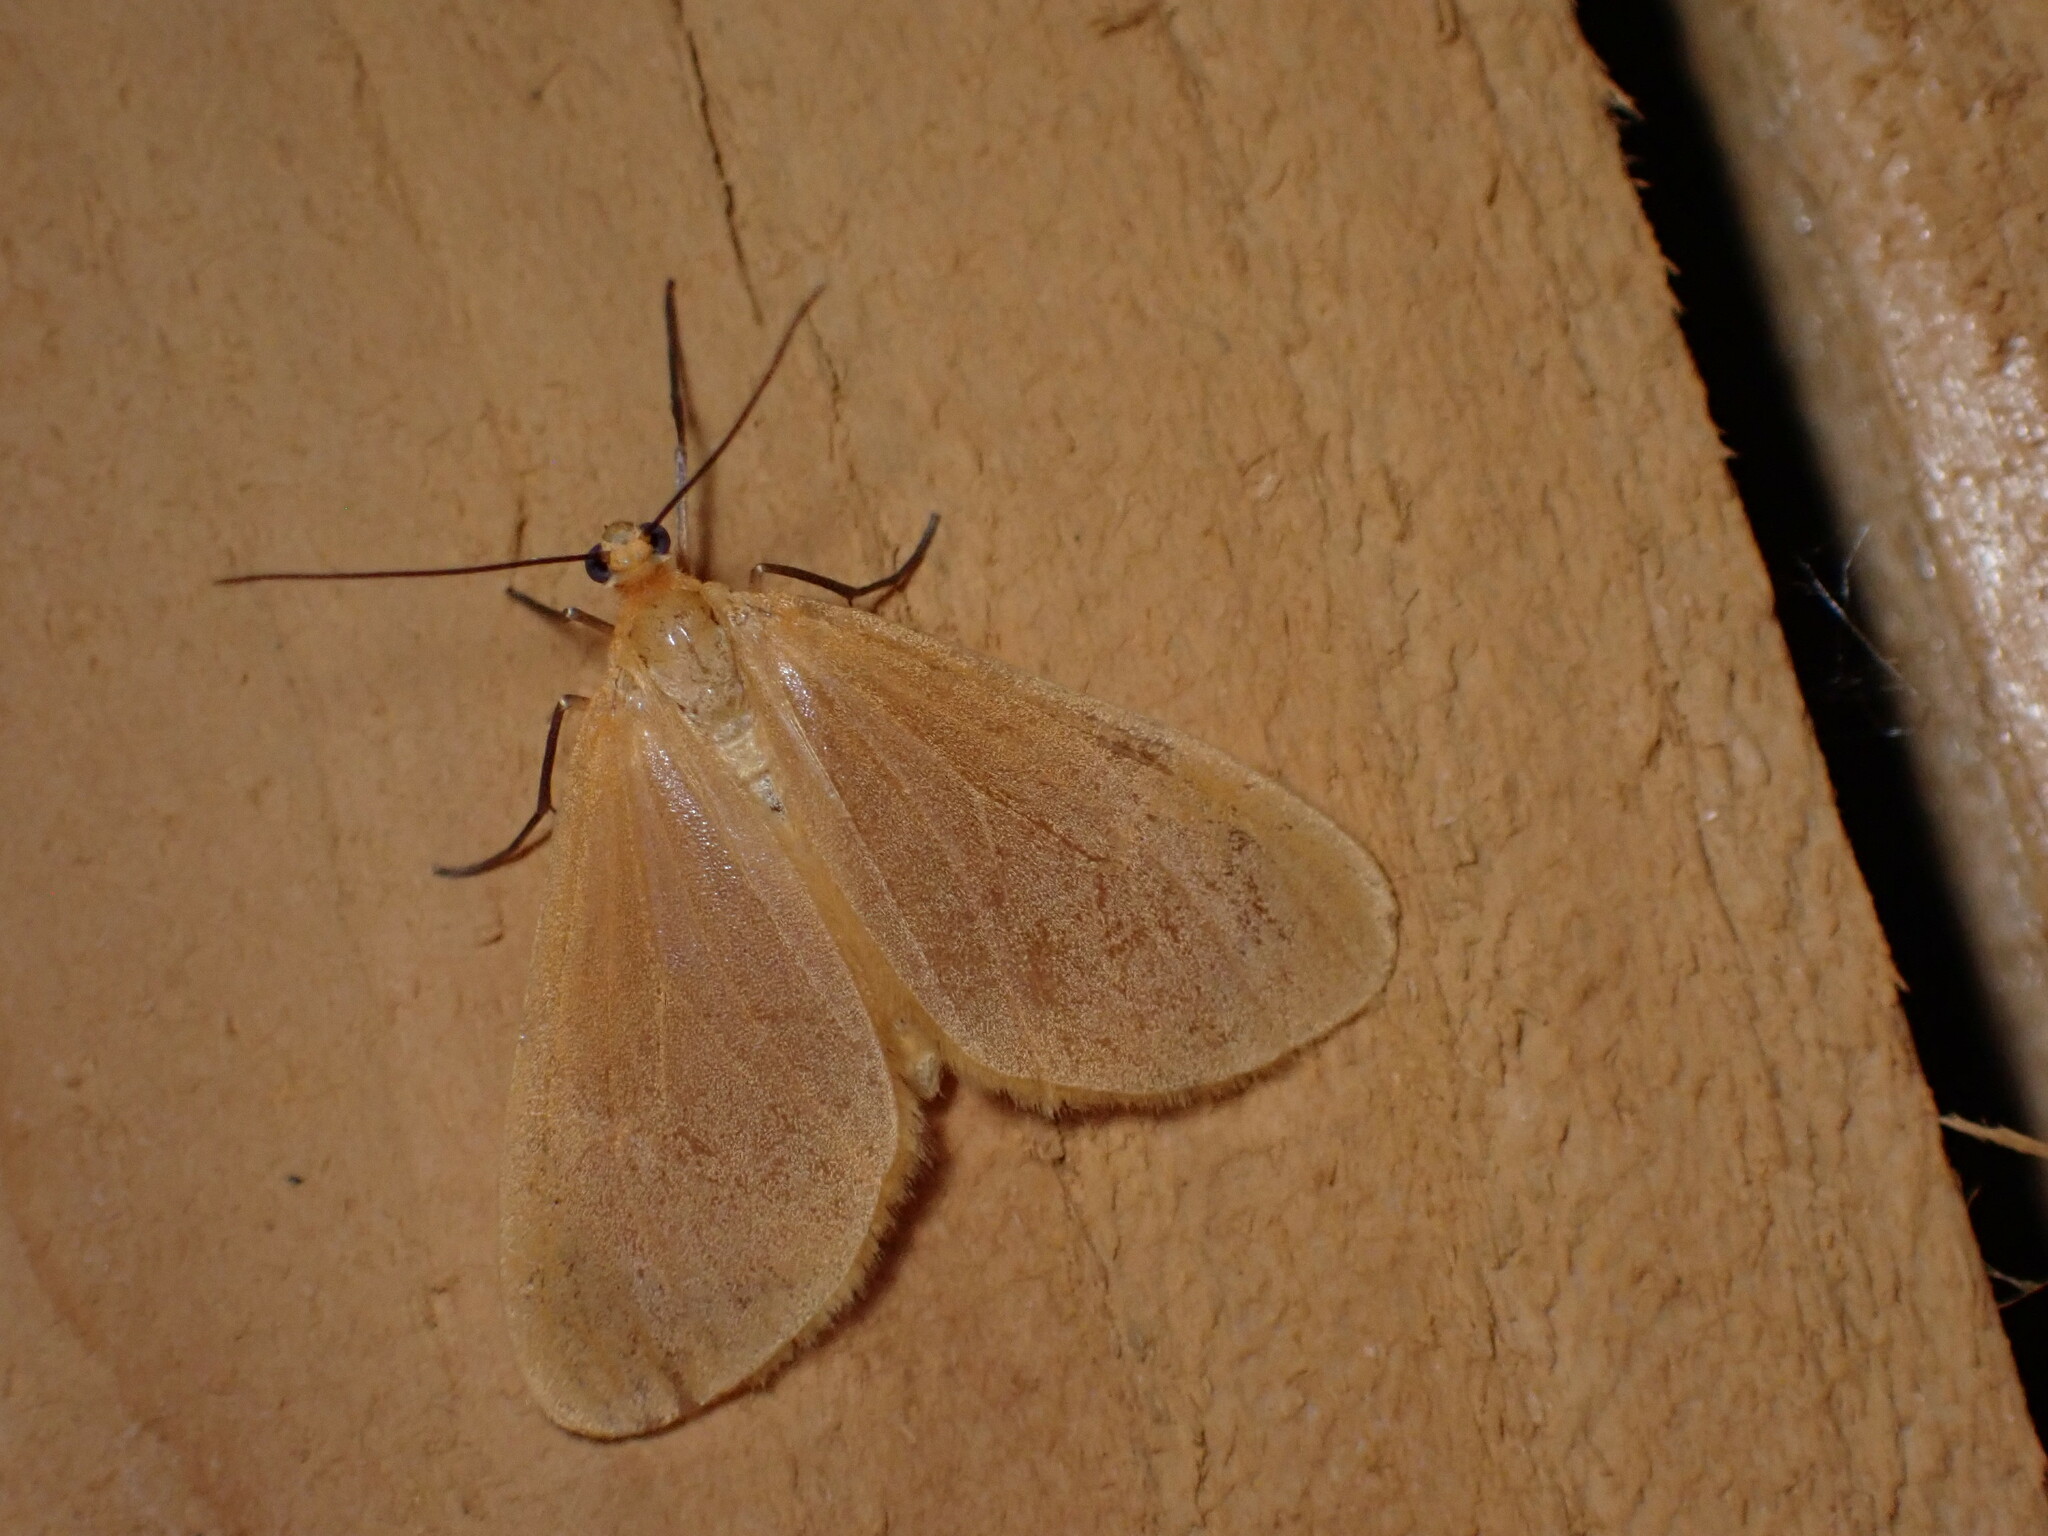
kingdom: Animalia
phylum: Arthropoda
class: Insecta
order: Lepidoptera
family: Geometridae
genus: Eubaphe
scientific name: Eubaphe unicolor
